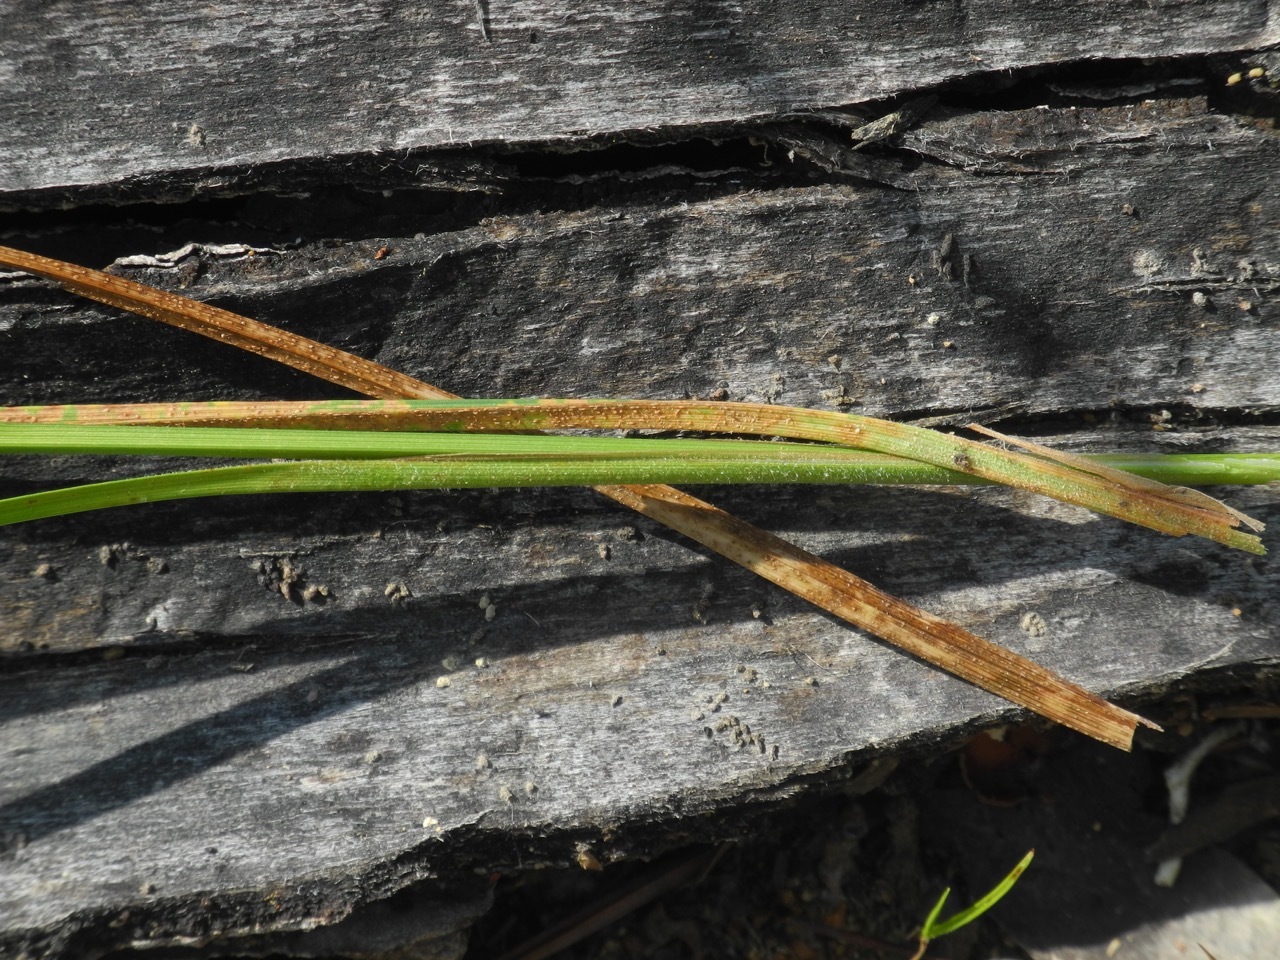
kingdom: Plantae
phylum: Tracheophyta
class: Liliopsida
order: Poales
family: Cyperaceae
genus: Carex
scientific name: Carex hirsutella
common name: Fuzzy wuzzy sedge
